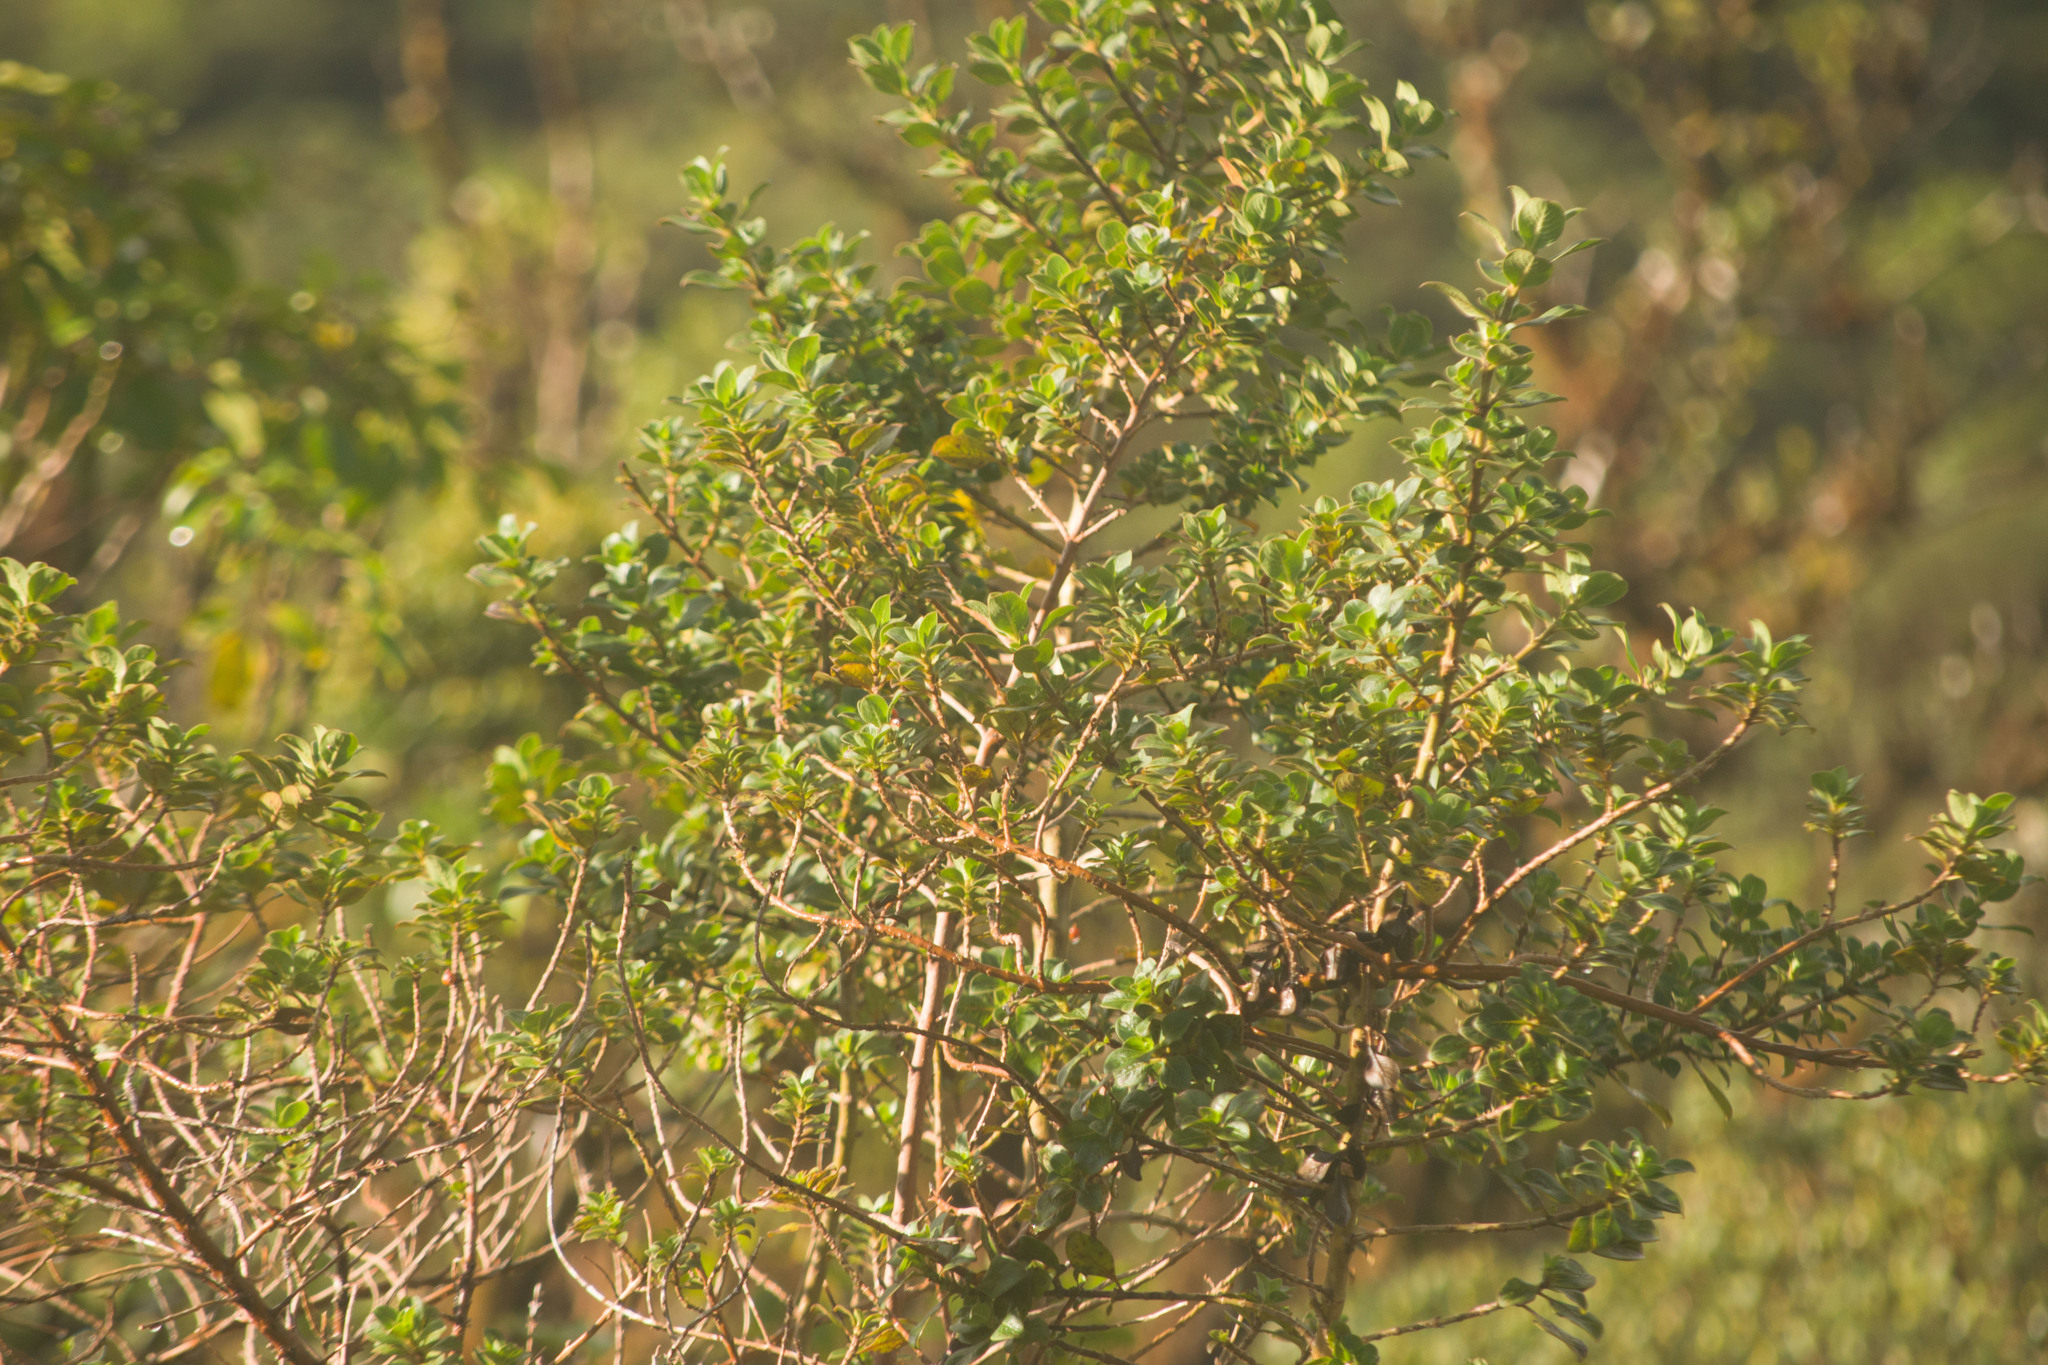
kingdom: Plantae
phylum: Tracheophyta
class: Magnoliopsida
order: Gentianales
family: Rubiaceae
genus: Coprosma
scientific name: Coprosma ochracea
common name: Maui mirrorplant
